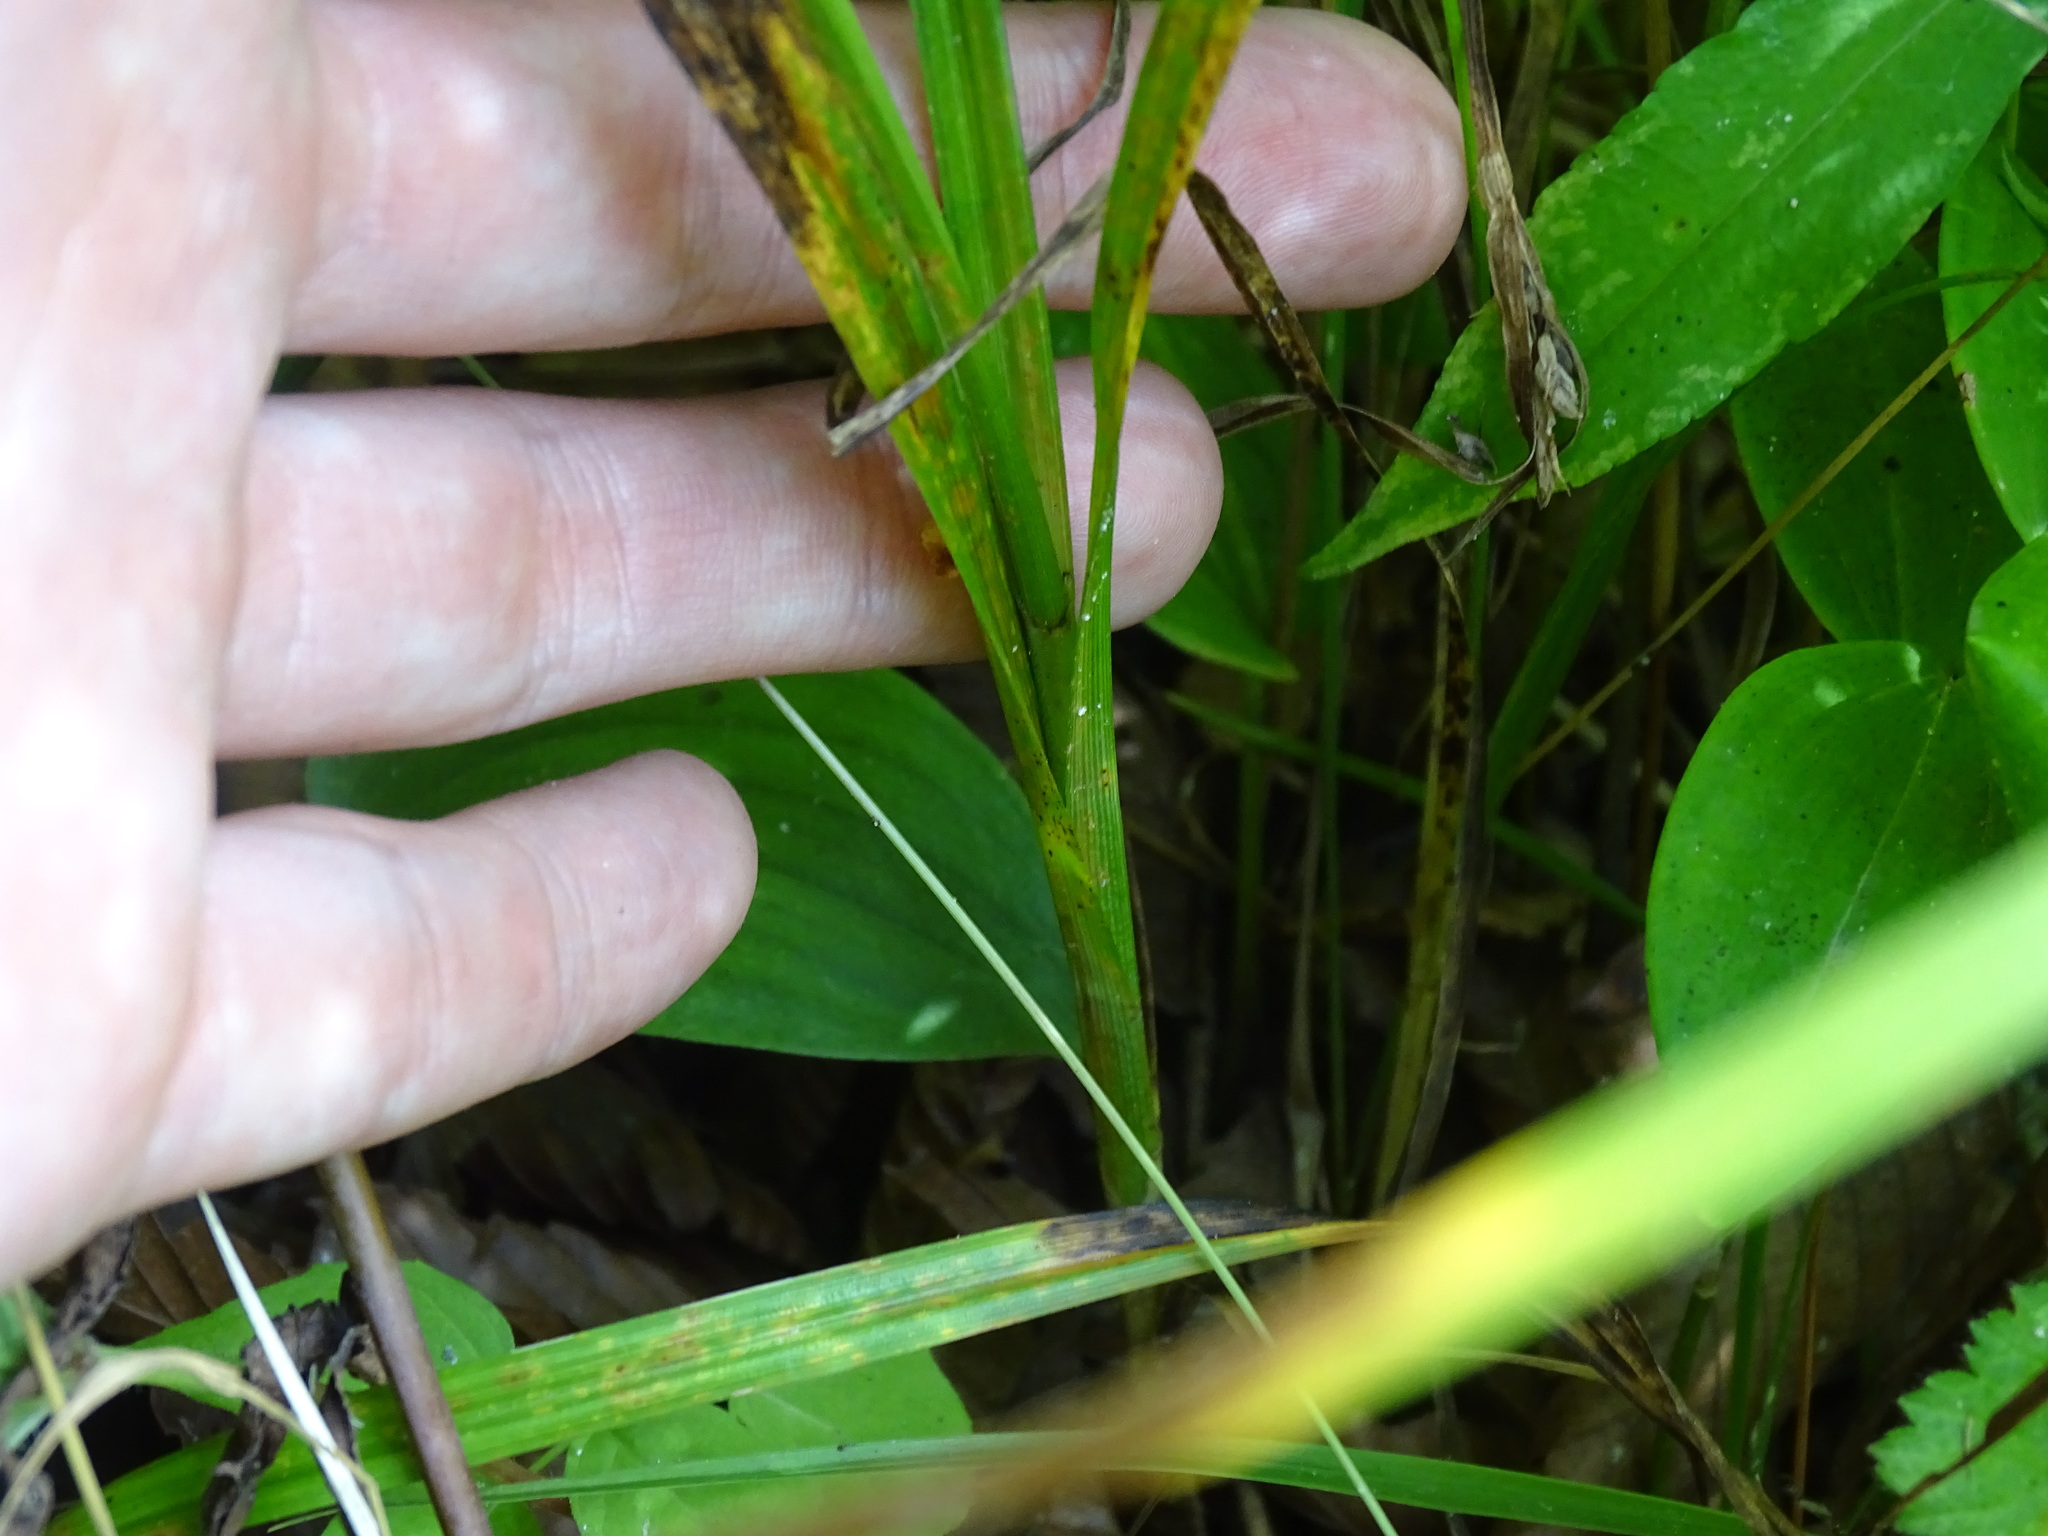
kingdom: Plantae
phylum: Tracheophyta
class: Liliopsida
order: Poales
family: Cyperaceae
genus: Carex
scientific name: Carex sparganioides
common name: Burreed sedge
